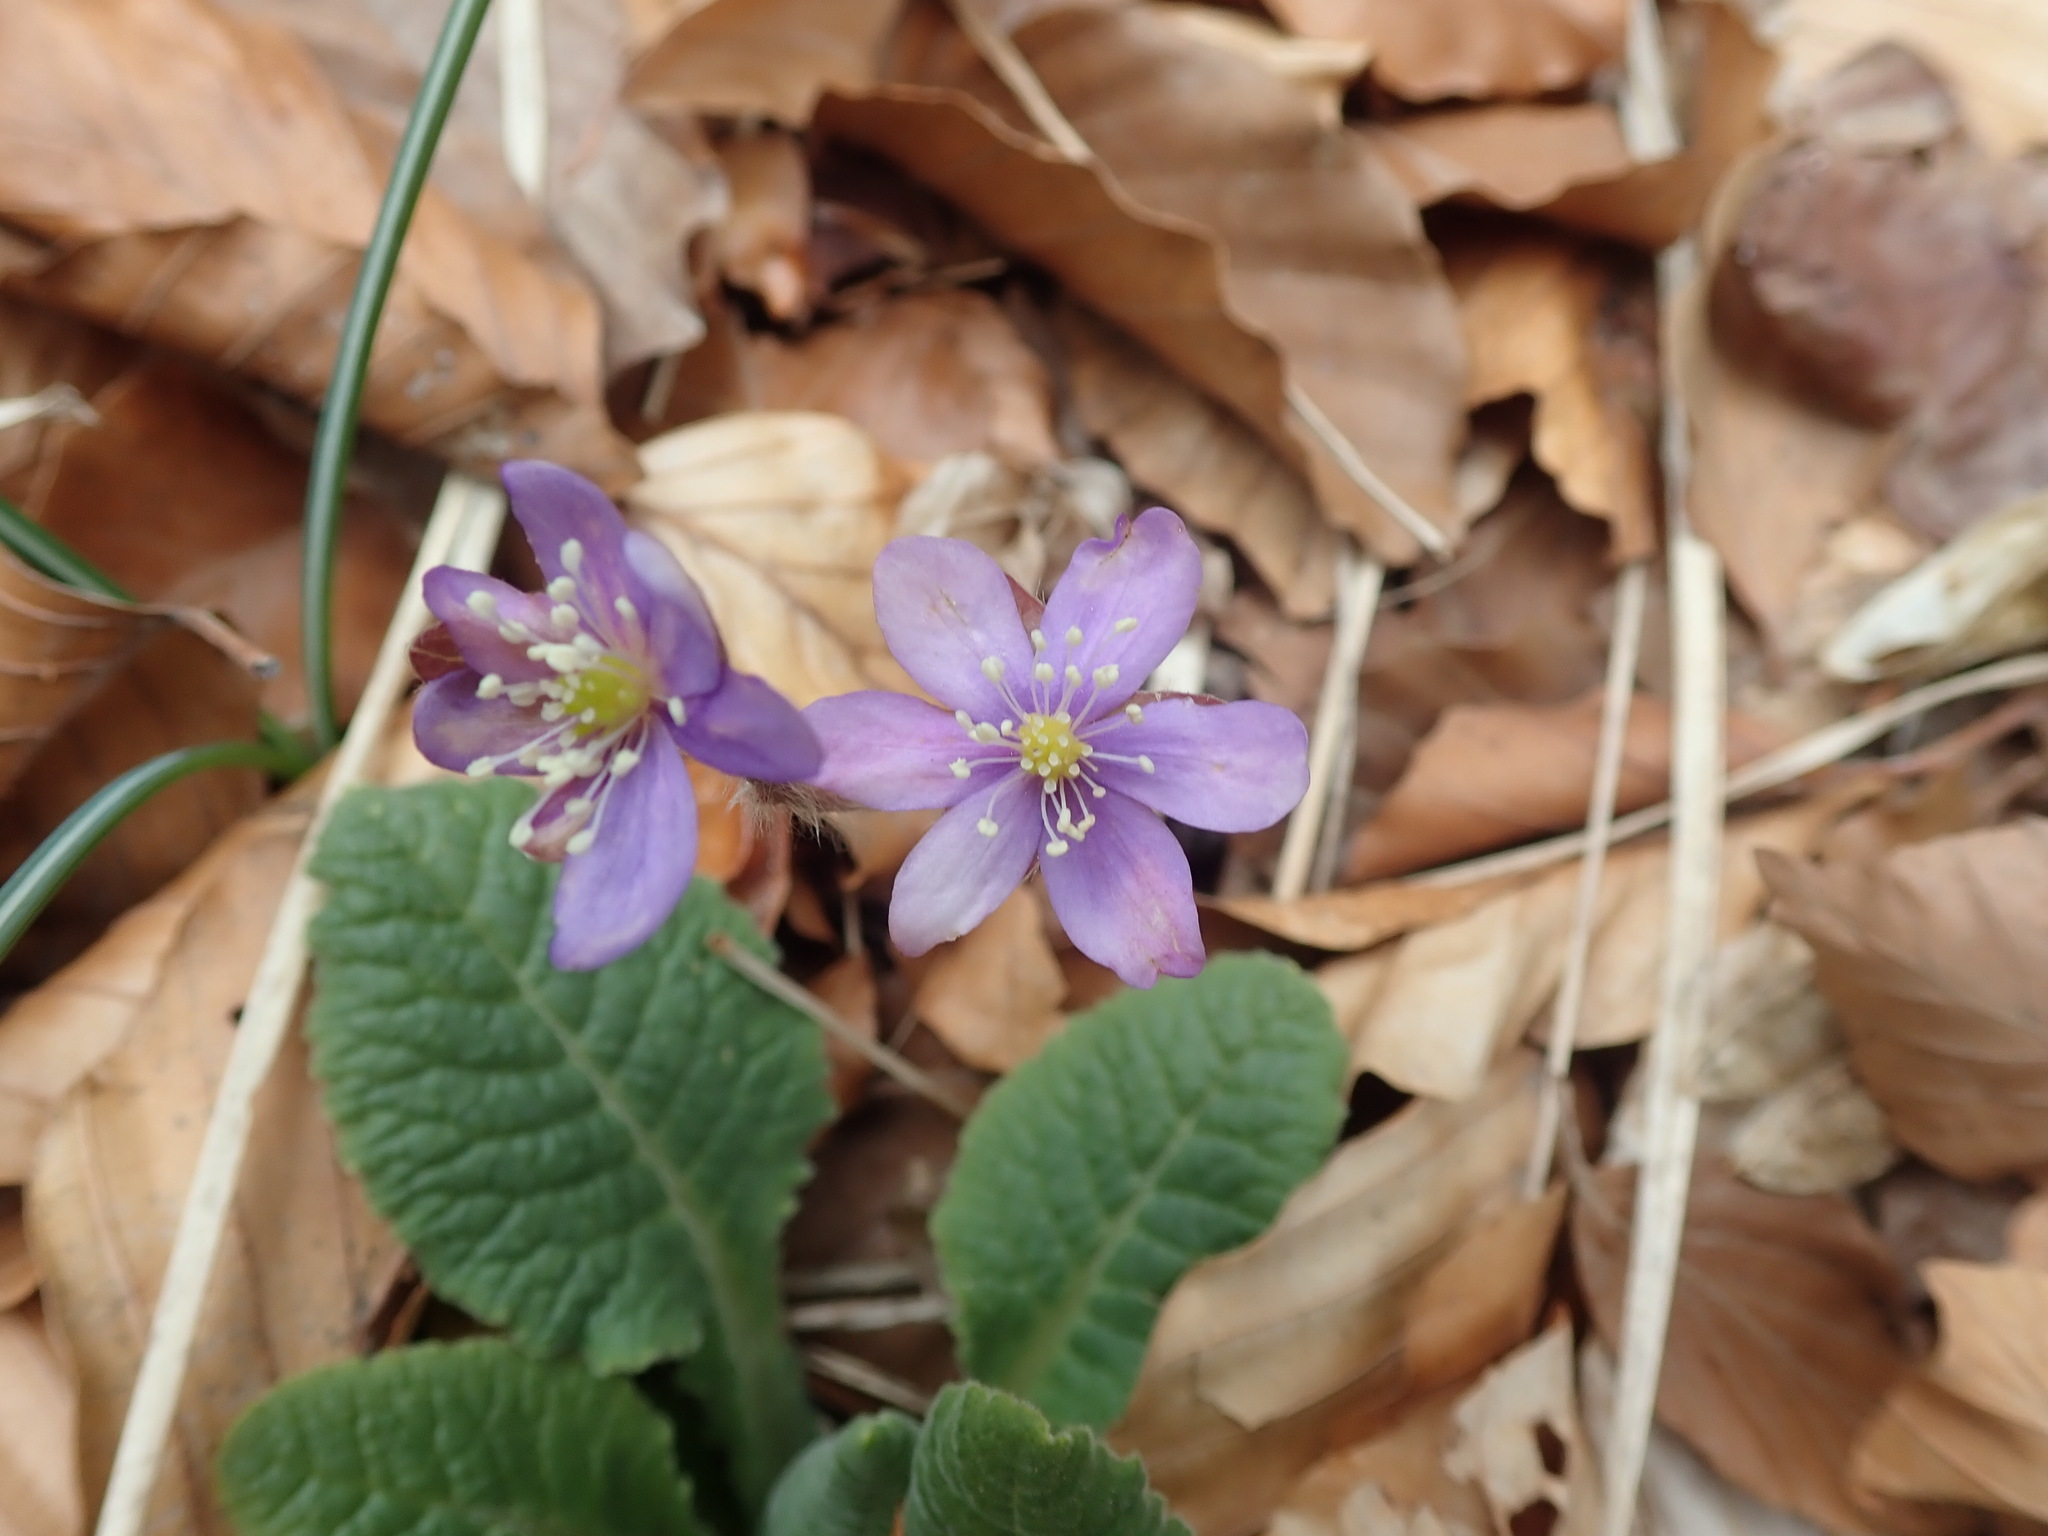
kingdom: Plantae
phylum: Tracheophyta
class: Magnoliopsida
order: Ranunculales
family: Ranunculaceae
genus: Hepatica
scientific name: Hepatica nobilis
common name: Liverleaf
